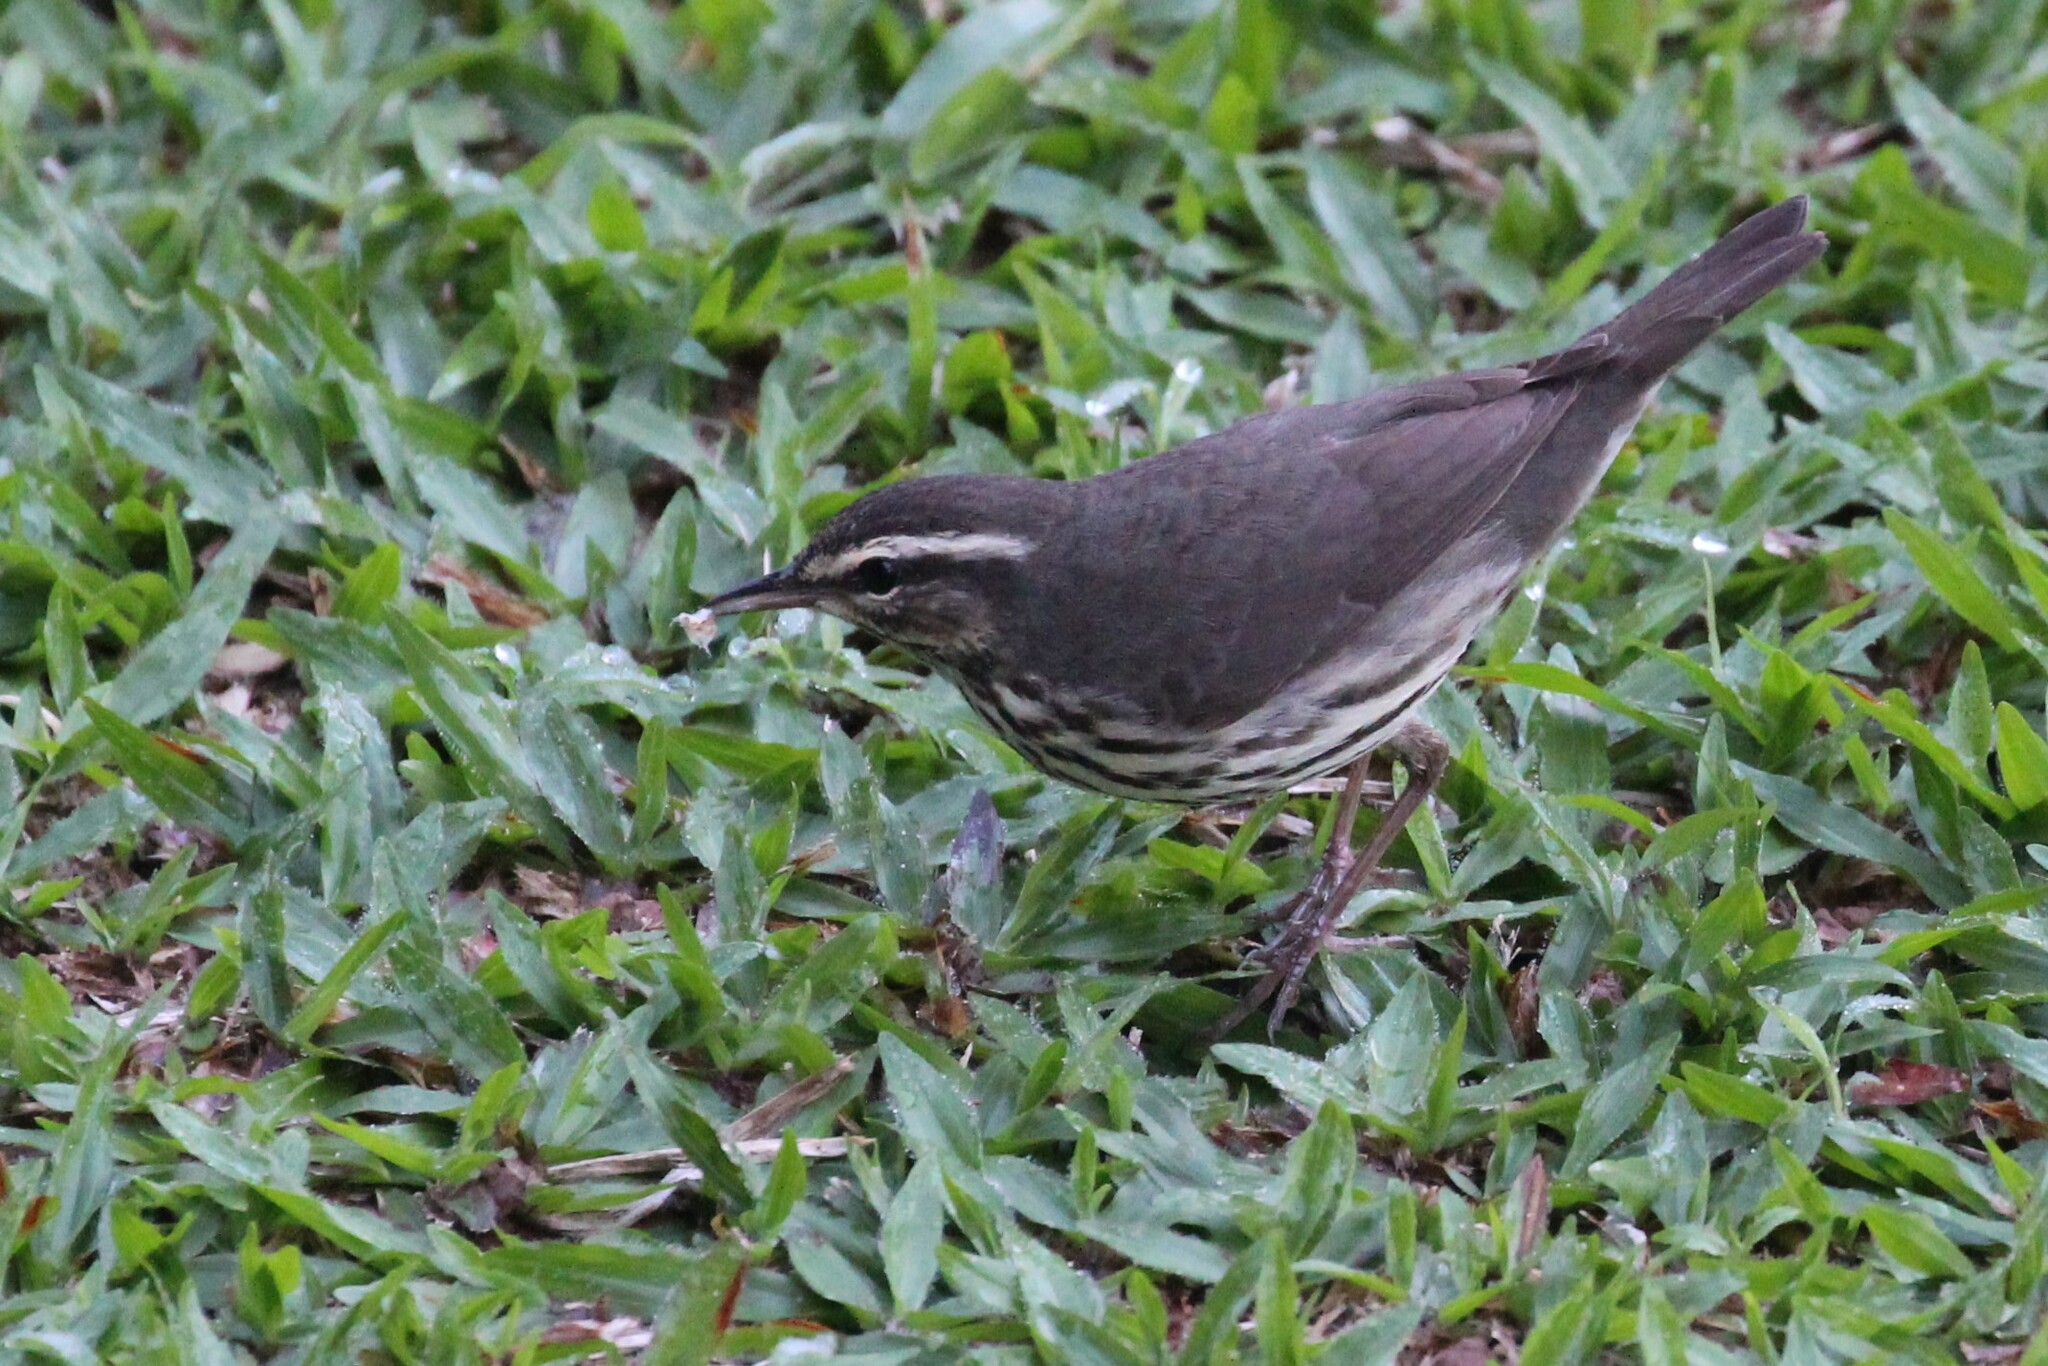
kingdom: Animalia
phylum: Chordata
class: Aves
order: Passeriformes
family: Parulidae
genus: Parkesia
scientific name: Parkesia noveboracensis
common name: Northern waterthrush
